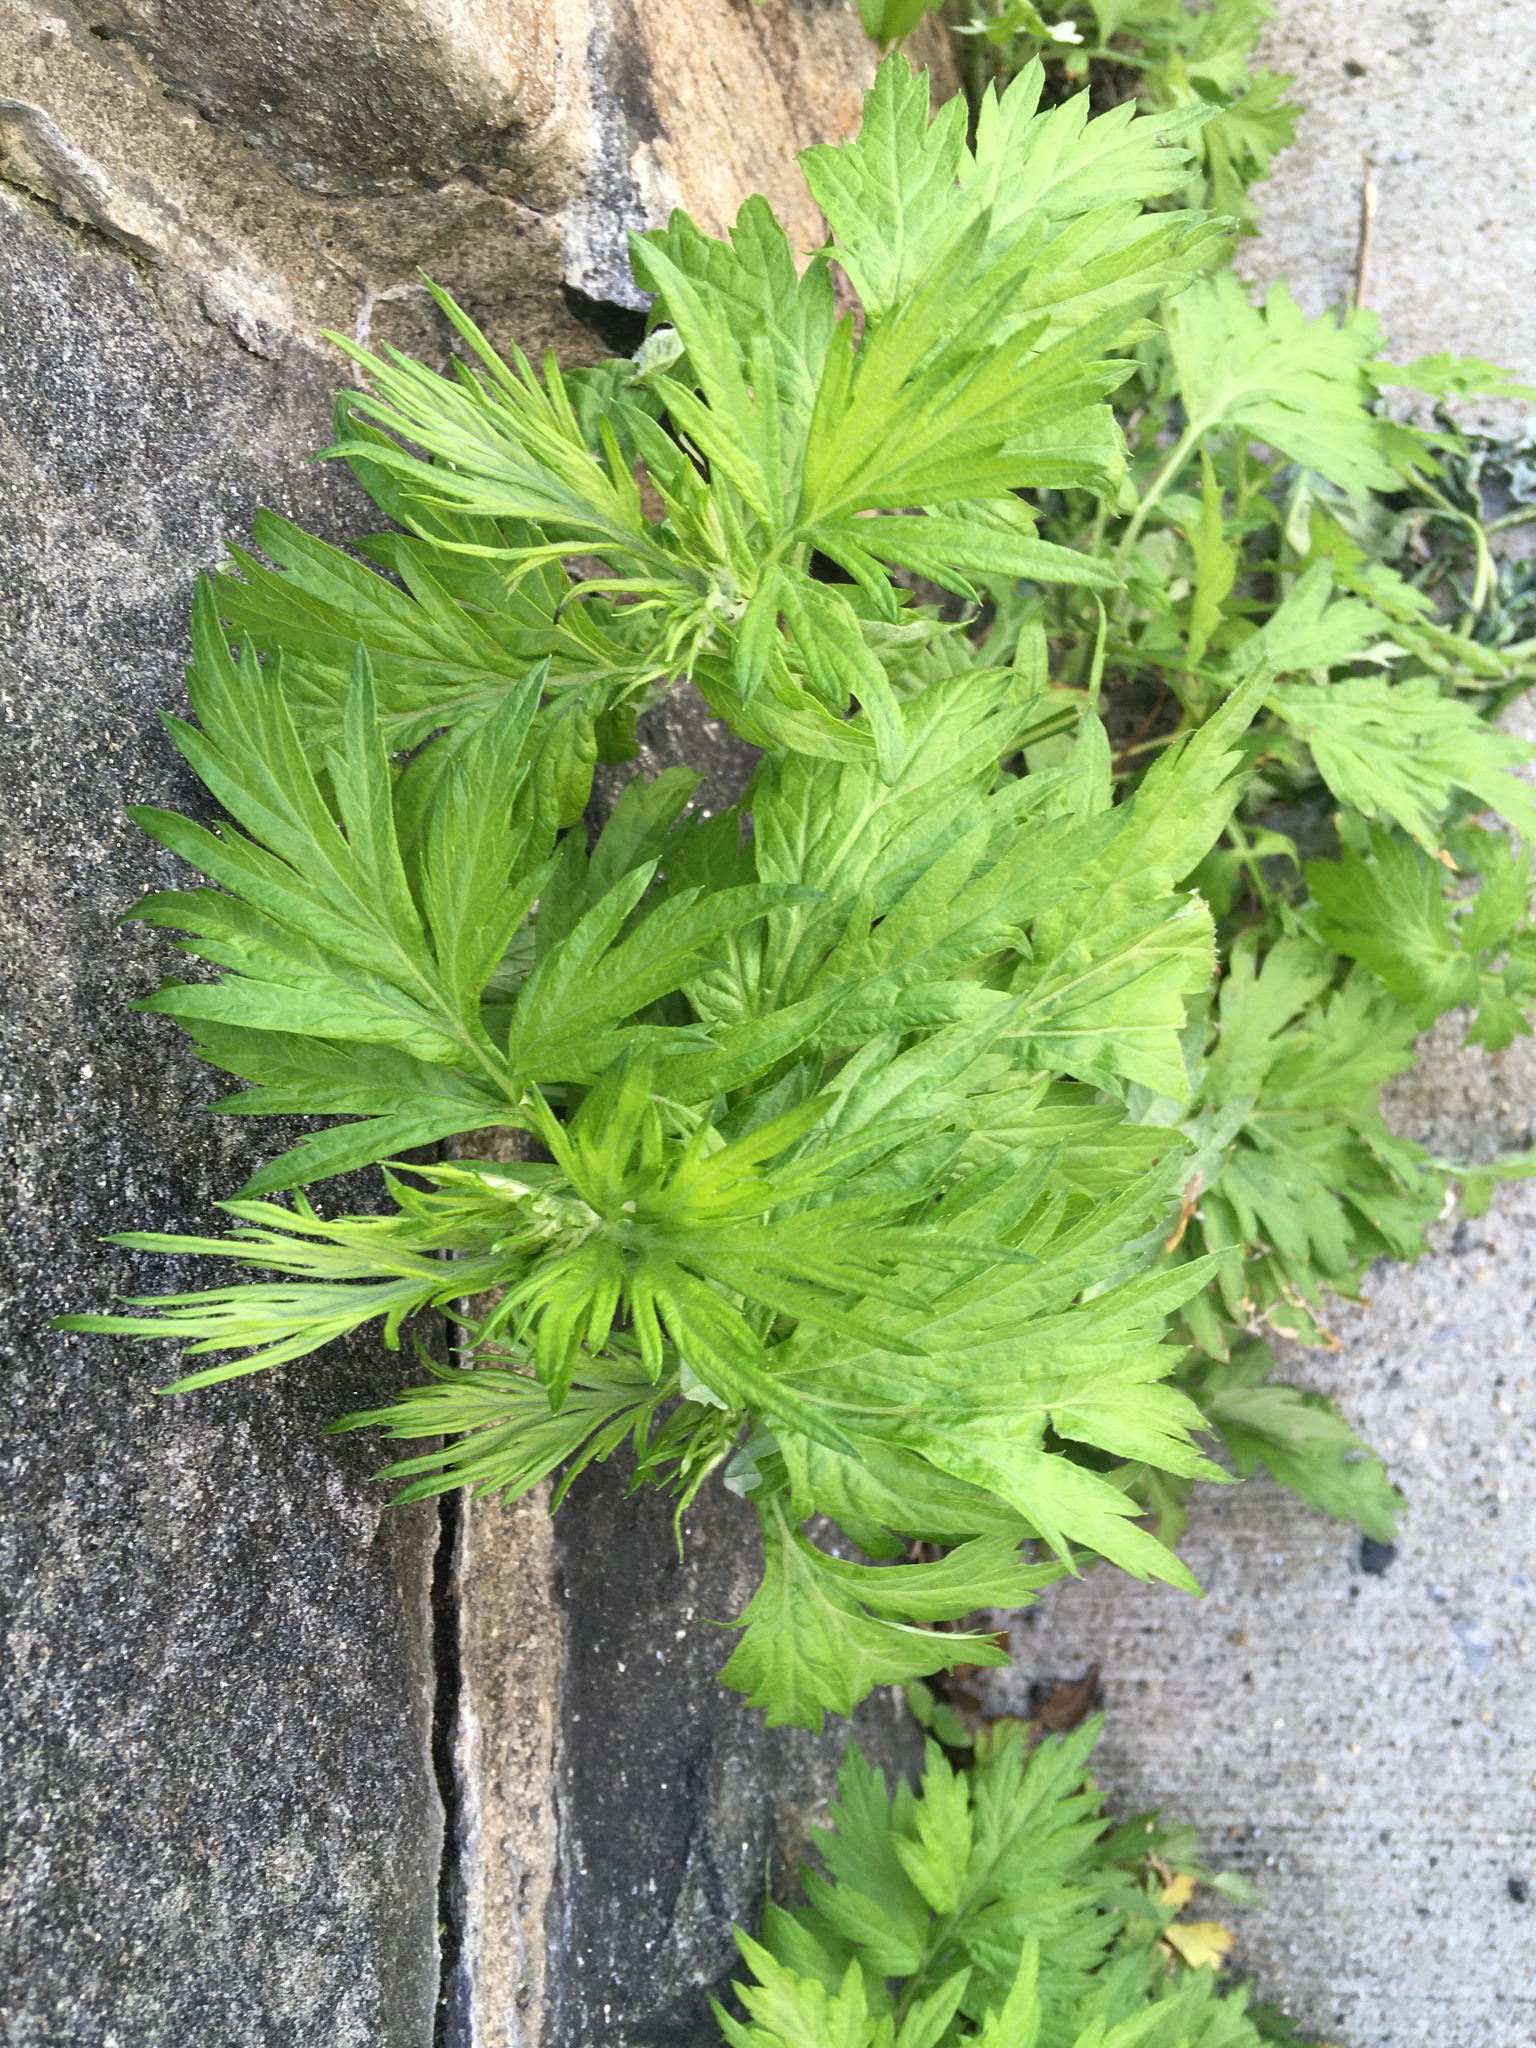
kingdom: Plantae
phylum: Tracheophyta
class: Magnoliopsida
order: Asterales
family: Asteraceae
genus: Artemisia
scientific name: Artemisia vulgaris
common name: Mugwort
